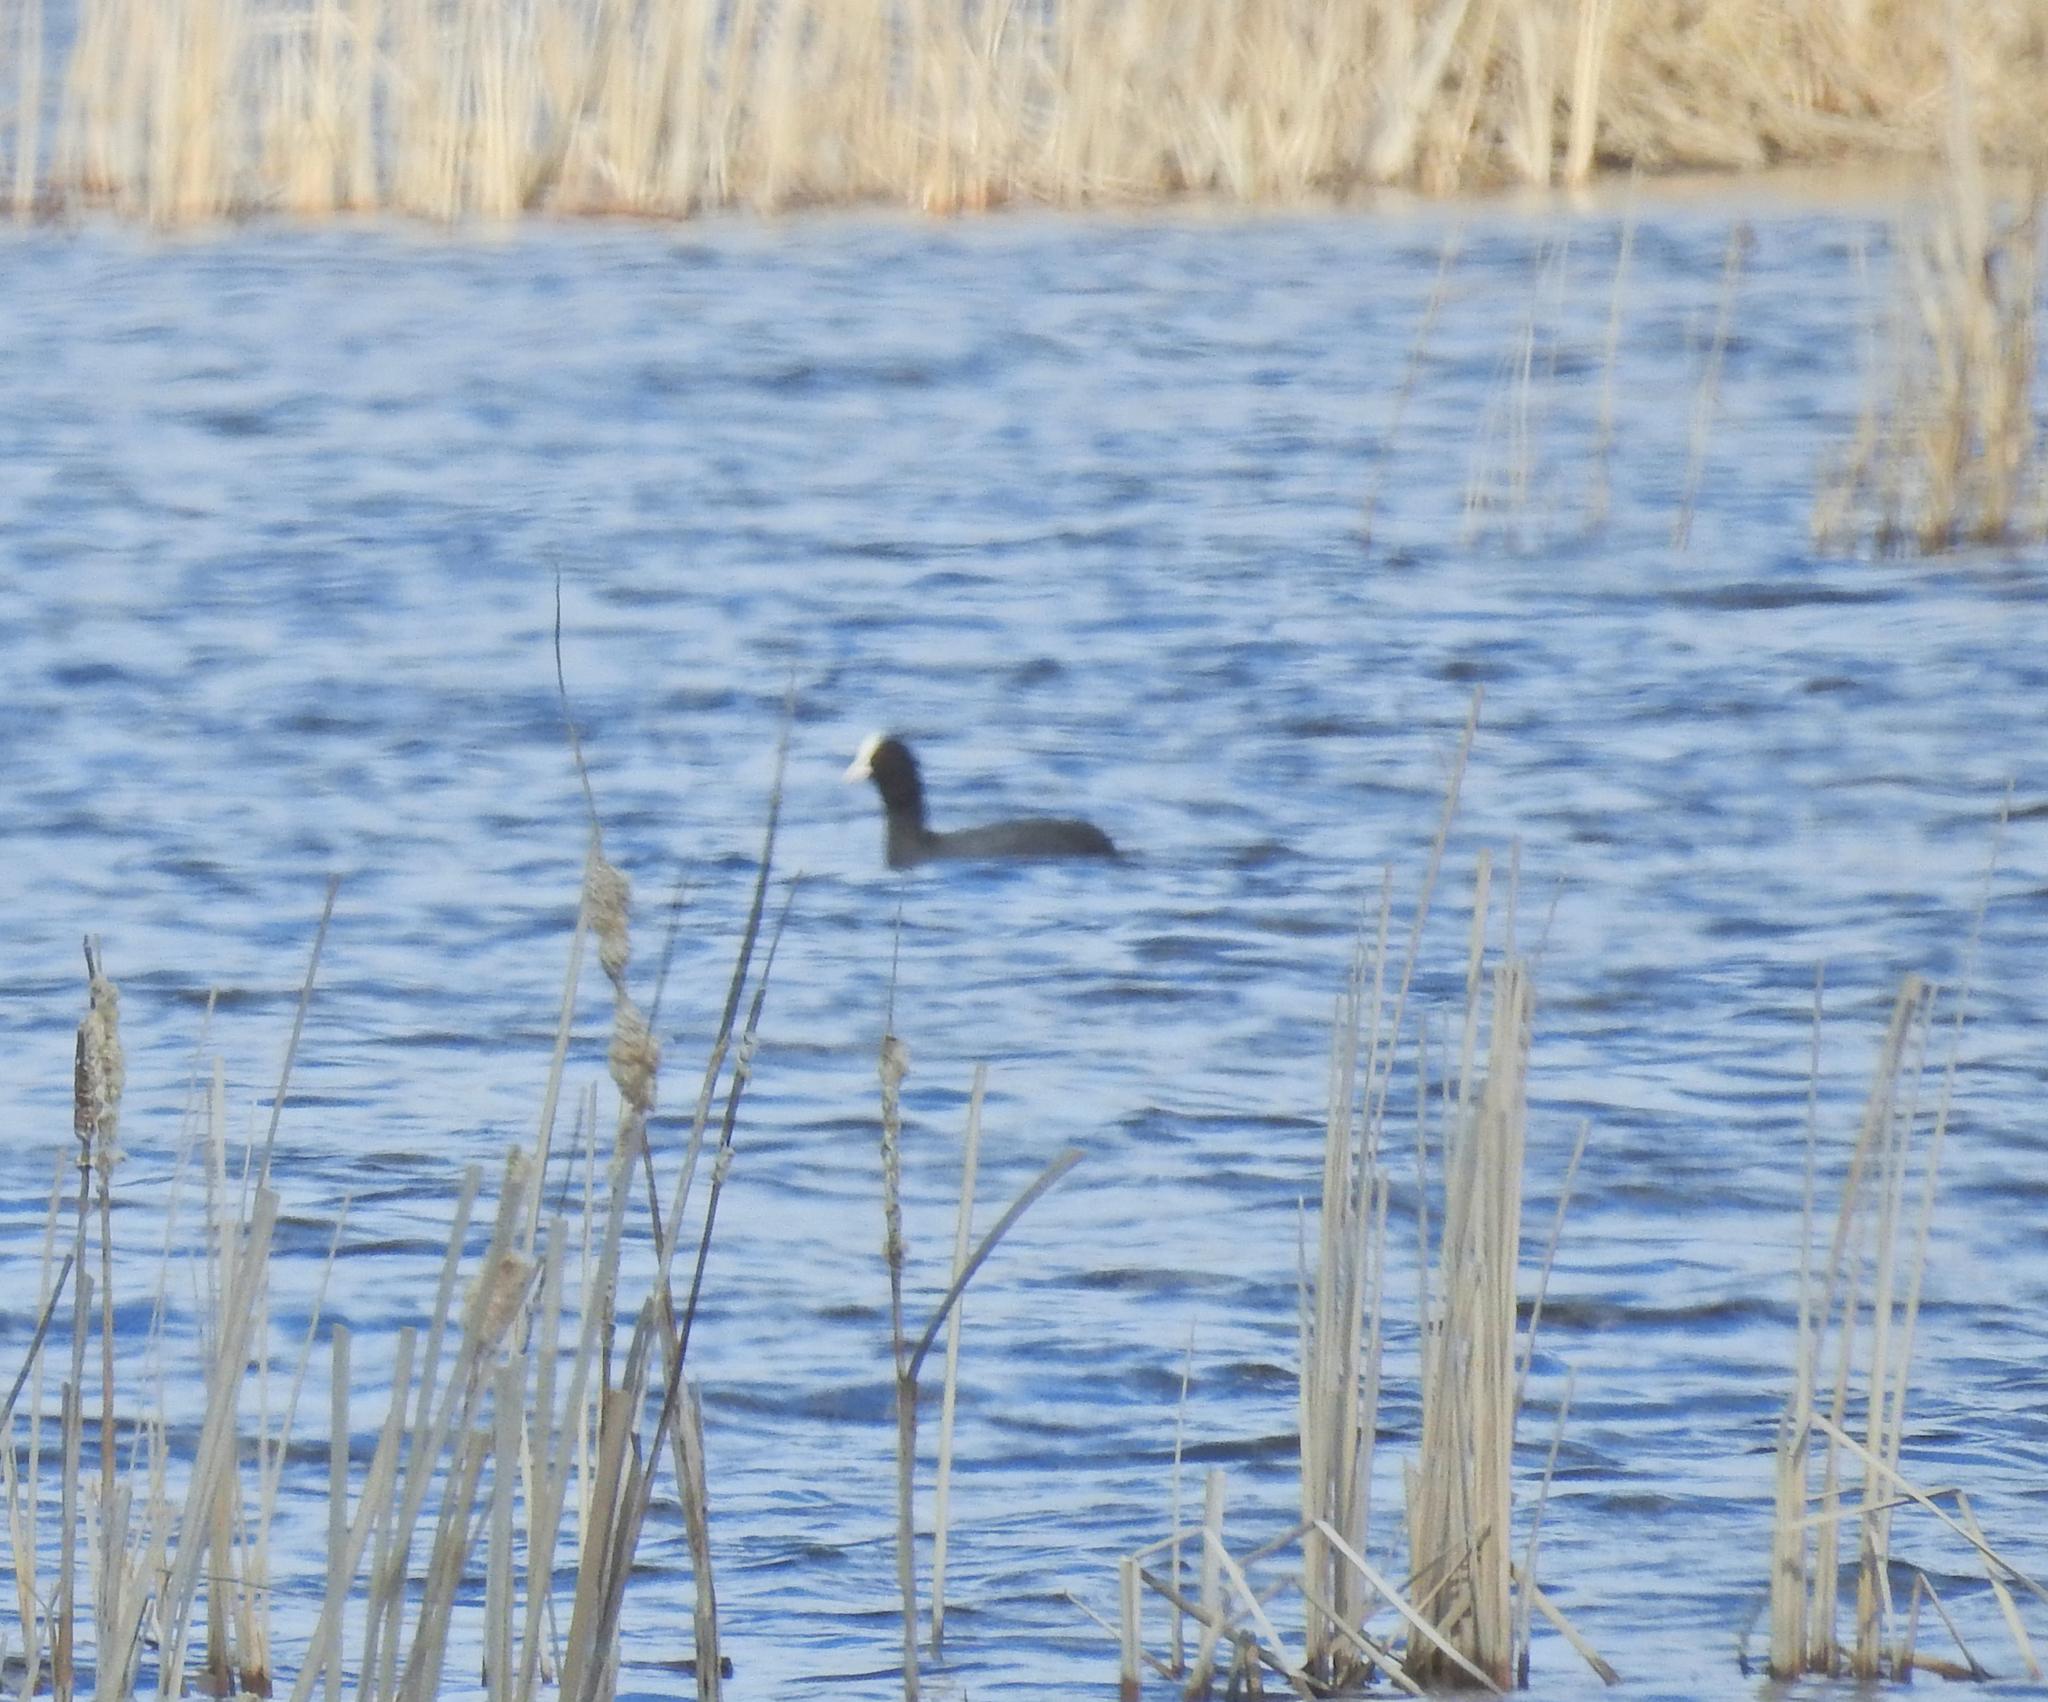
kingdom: Animalia
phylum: Chordata
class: Aves
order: Gruiformes
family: Rallidae
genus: Fulica
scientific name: Fulica atra
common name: Eurasian coot
